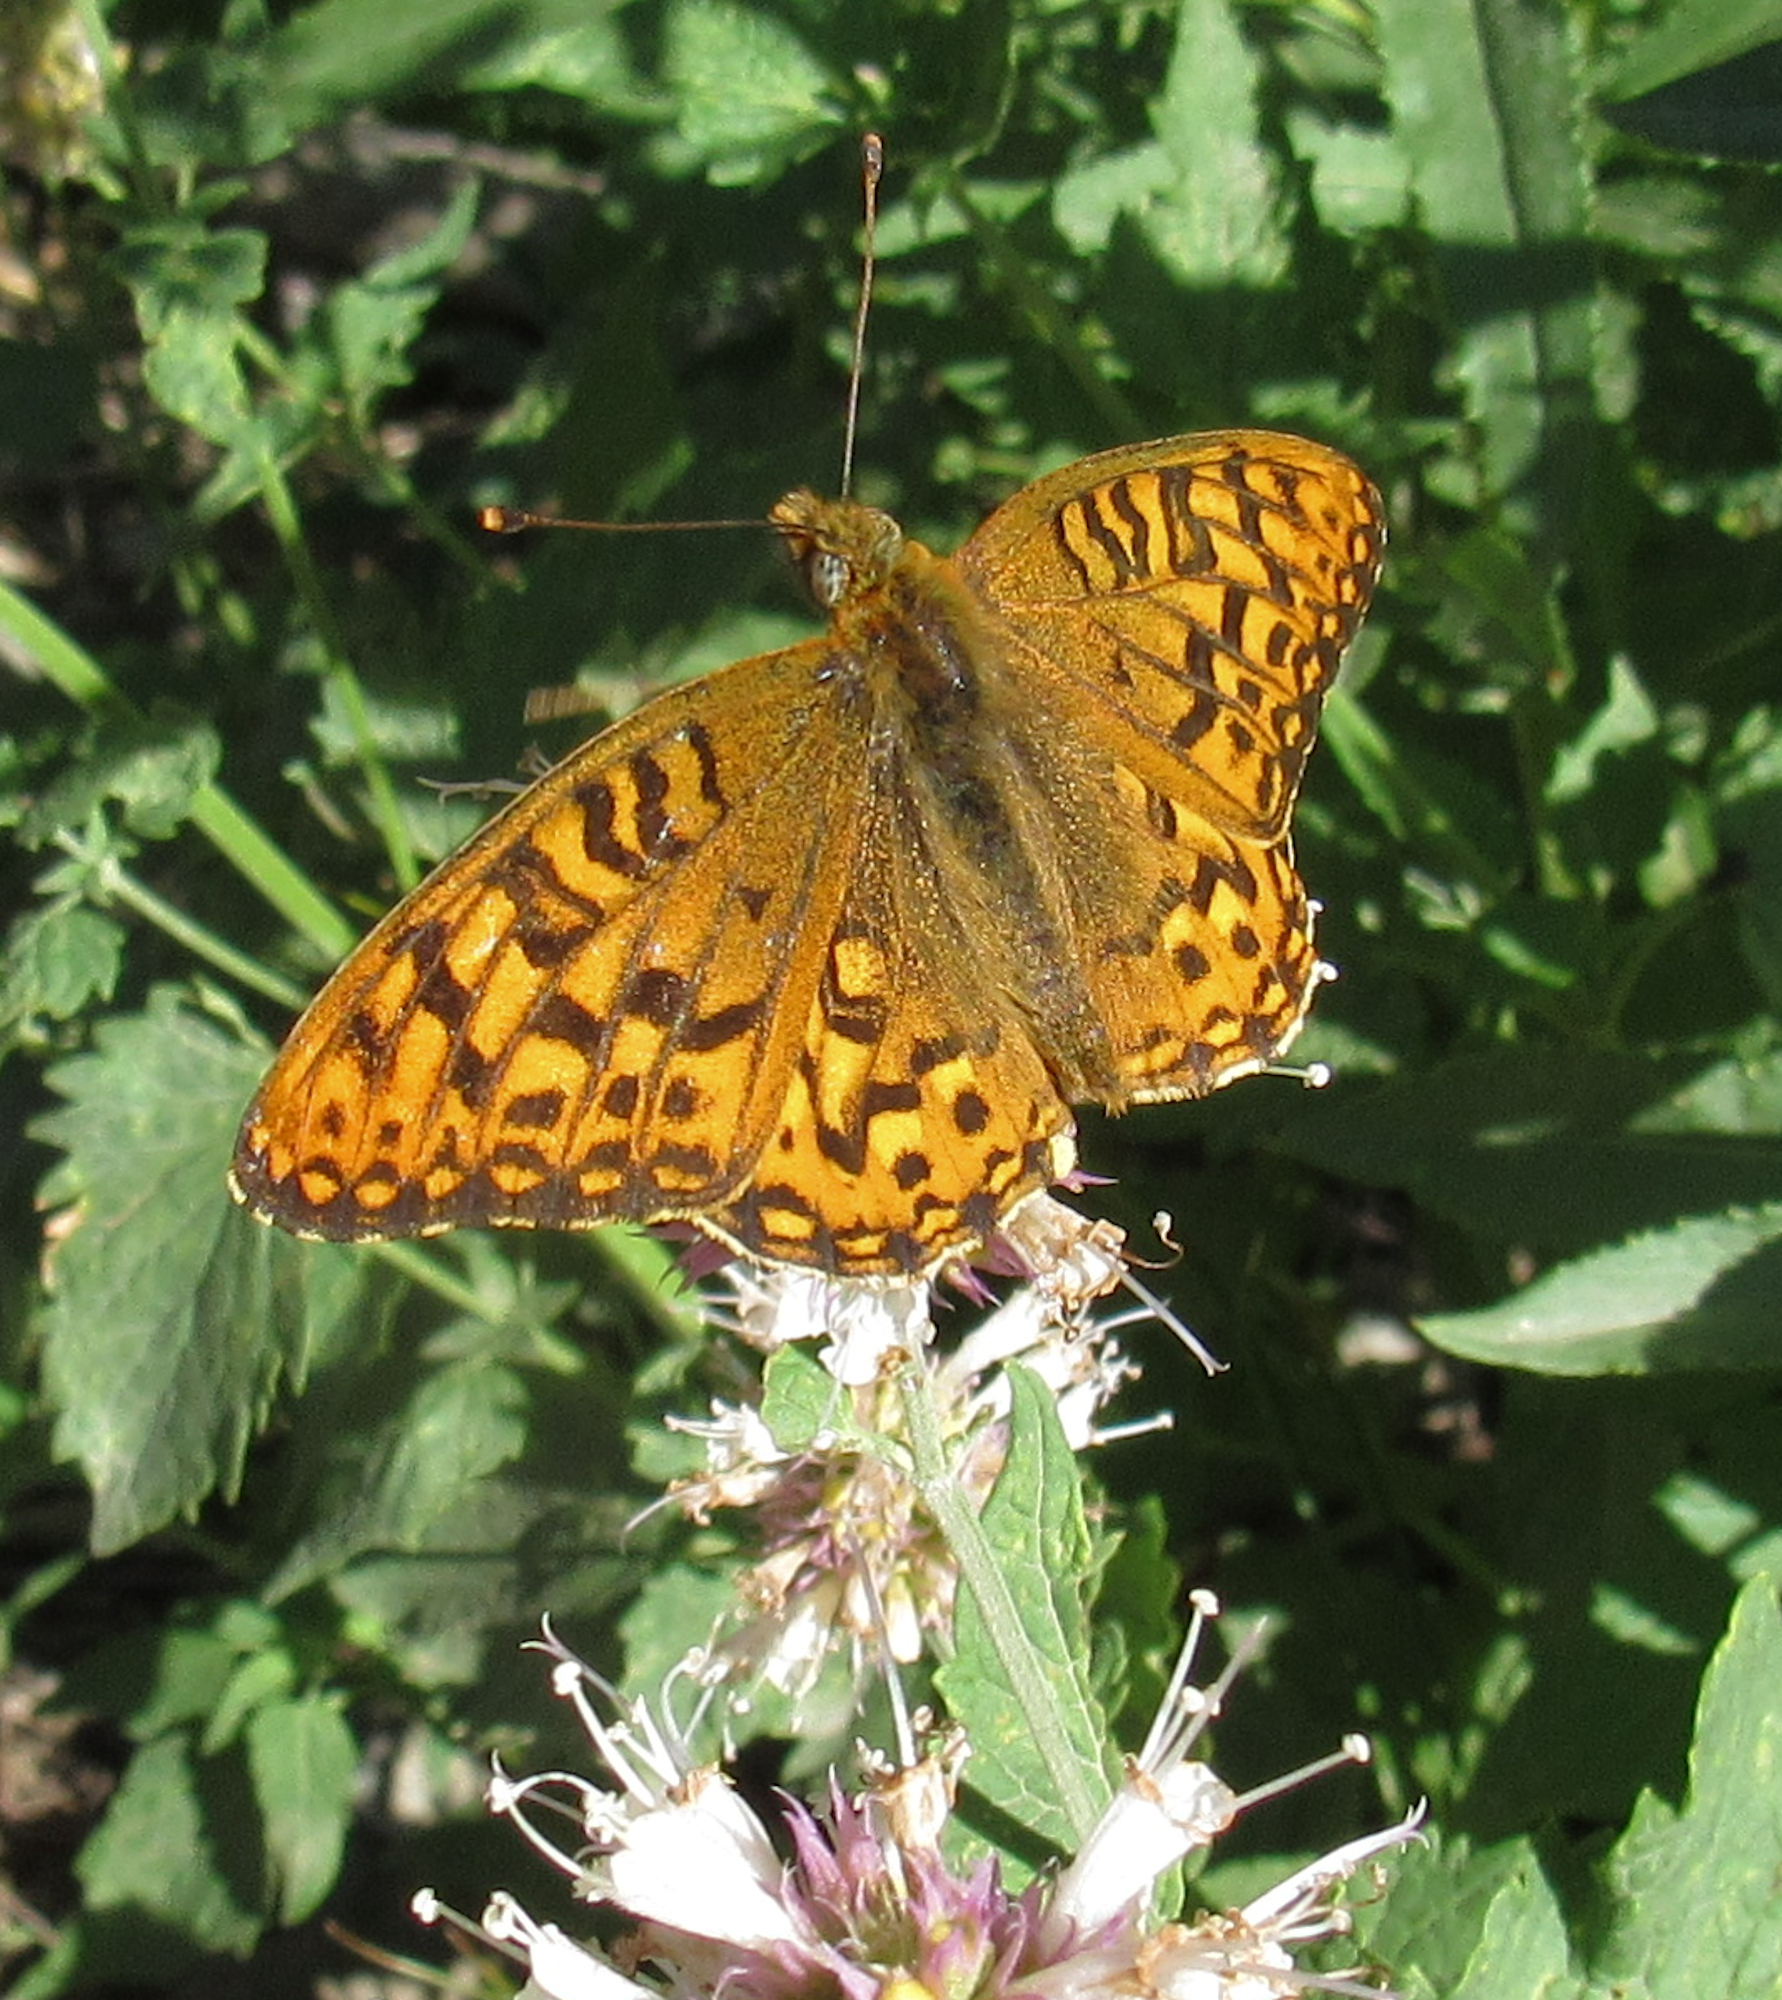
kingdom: Animalia
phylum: Arthropoda
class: Insecta
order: Lepidoptera
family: Nymphalidae
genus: Speyeria
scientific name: Speyeria egleis
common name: Great basin fritillary
